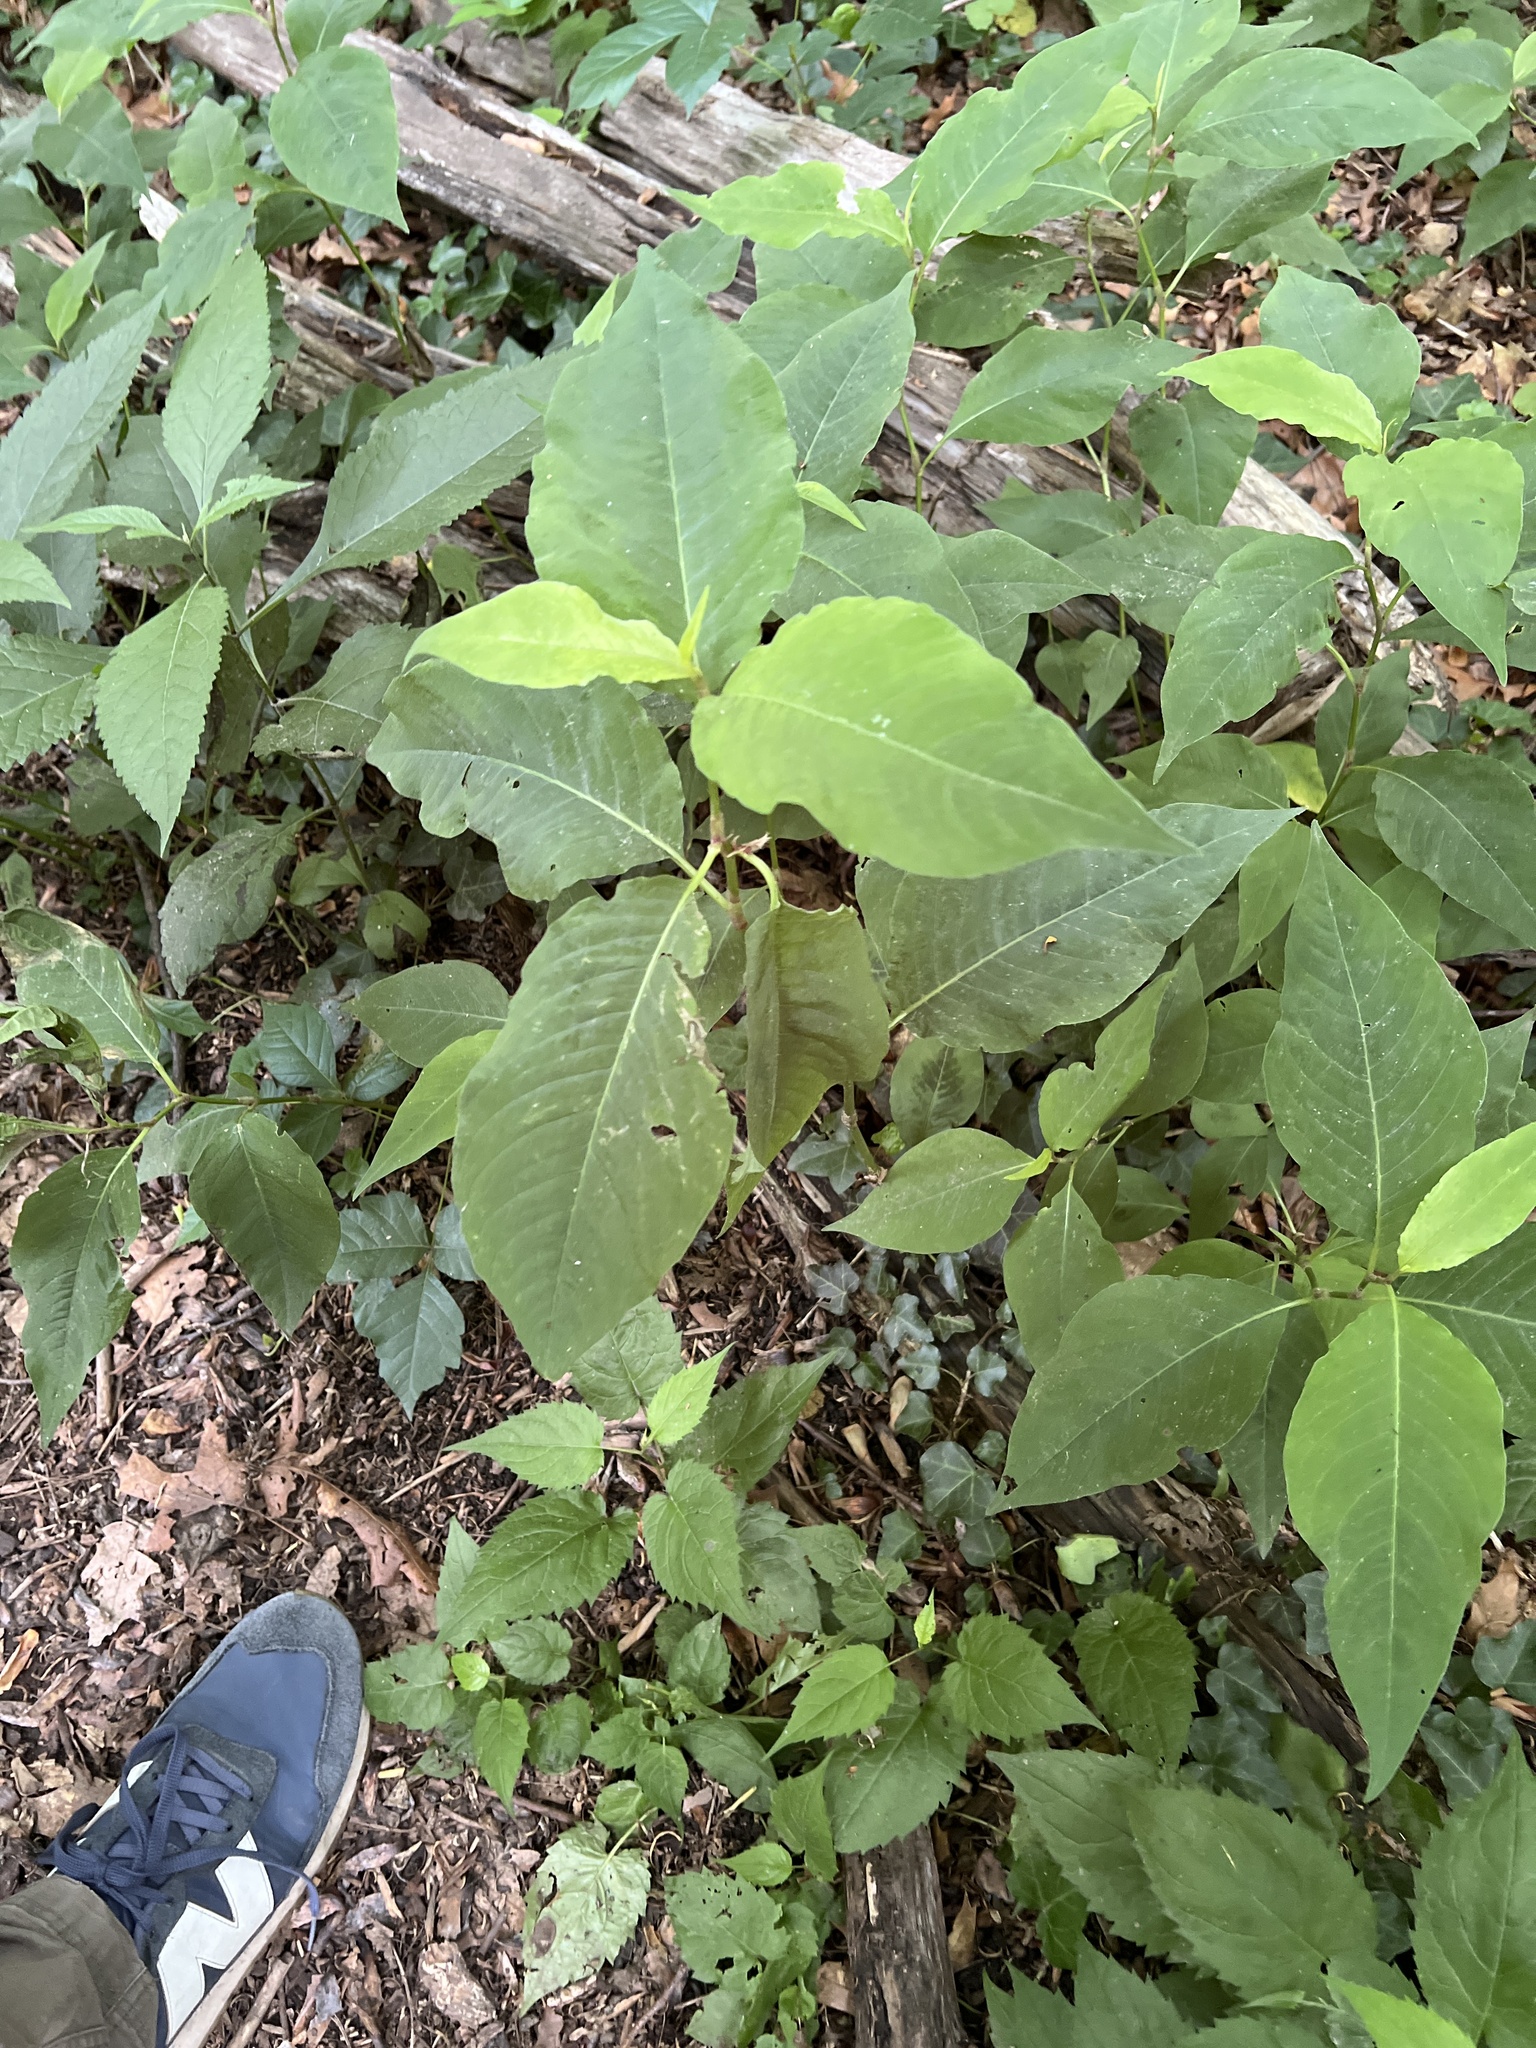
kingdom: Plantae
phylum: Tracheophyta
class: Magnoliopsida
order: Caryophyllales
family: Polygonaceae
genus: Persicaria
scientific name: Persicaria virginiana
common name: Jumpseed
